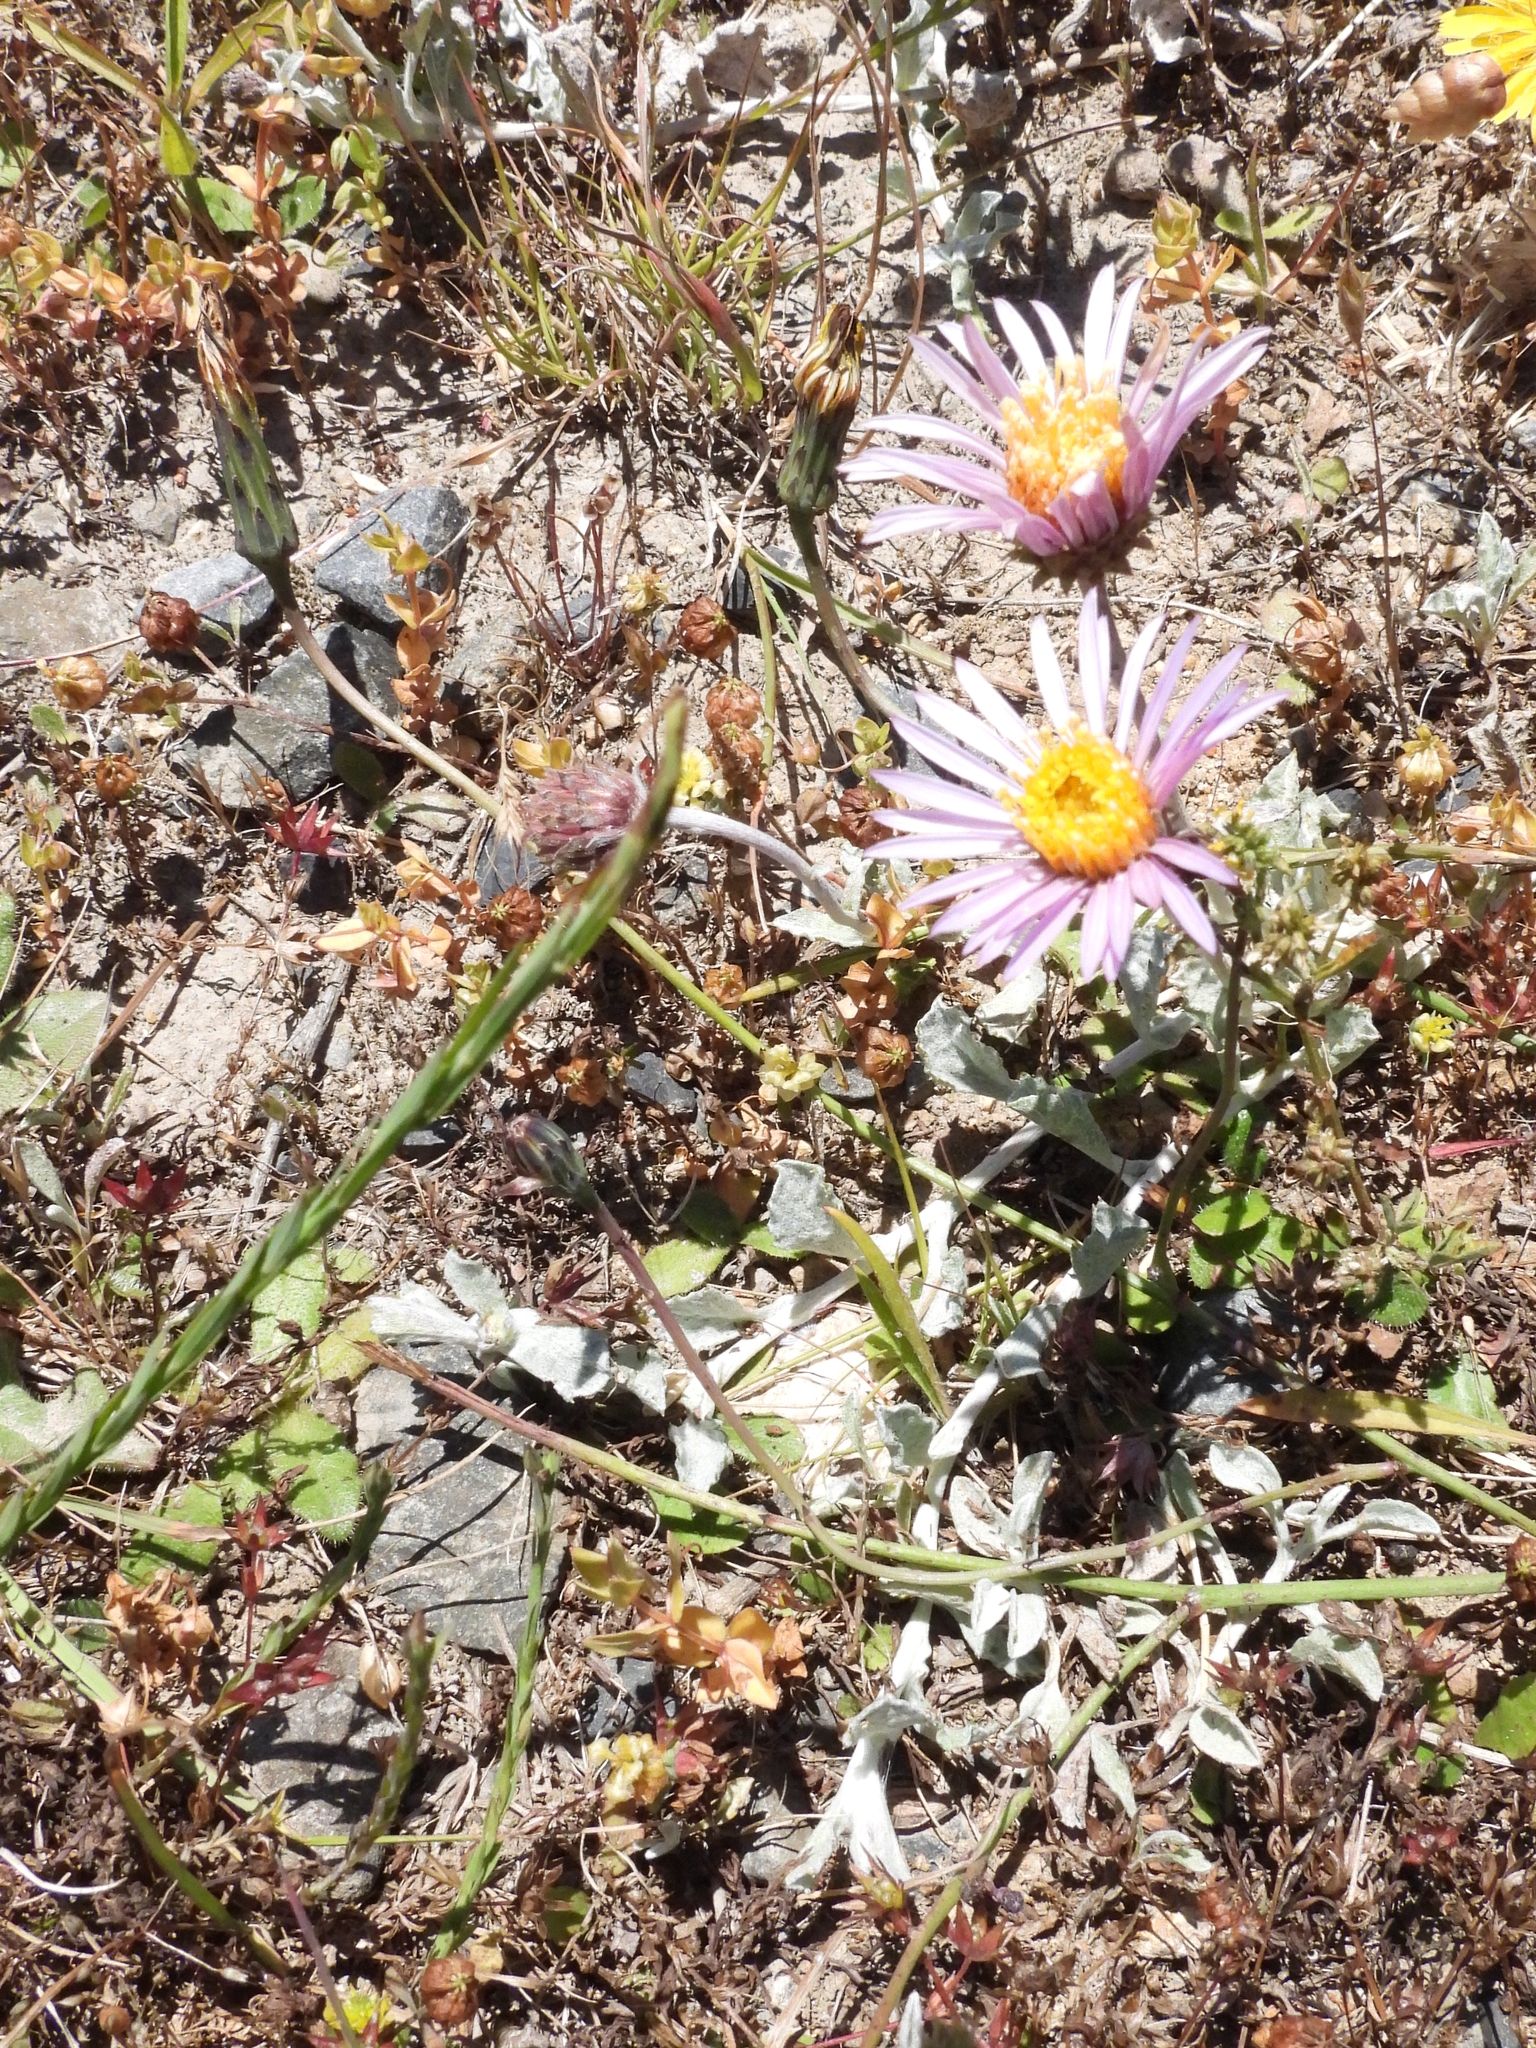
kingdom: Plantae
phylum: Tracheophyta
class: Magnoliopsida
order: Asterales
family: Asteraceae
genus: Corethrogyne
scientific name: Corethrogyne filaginifolia
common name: Sand-aster
